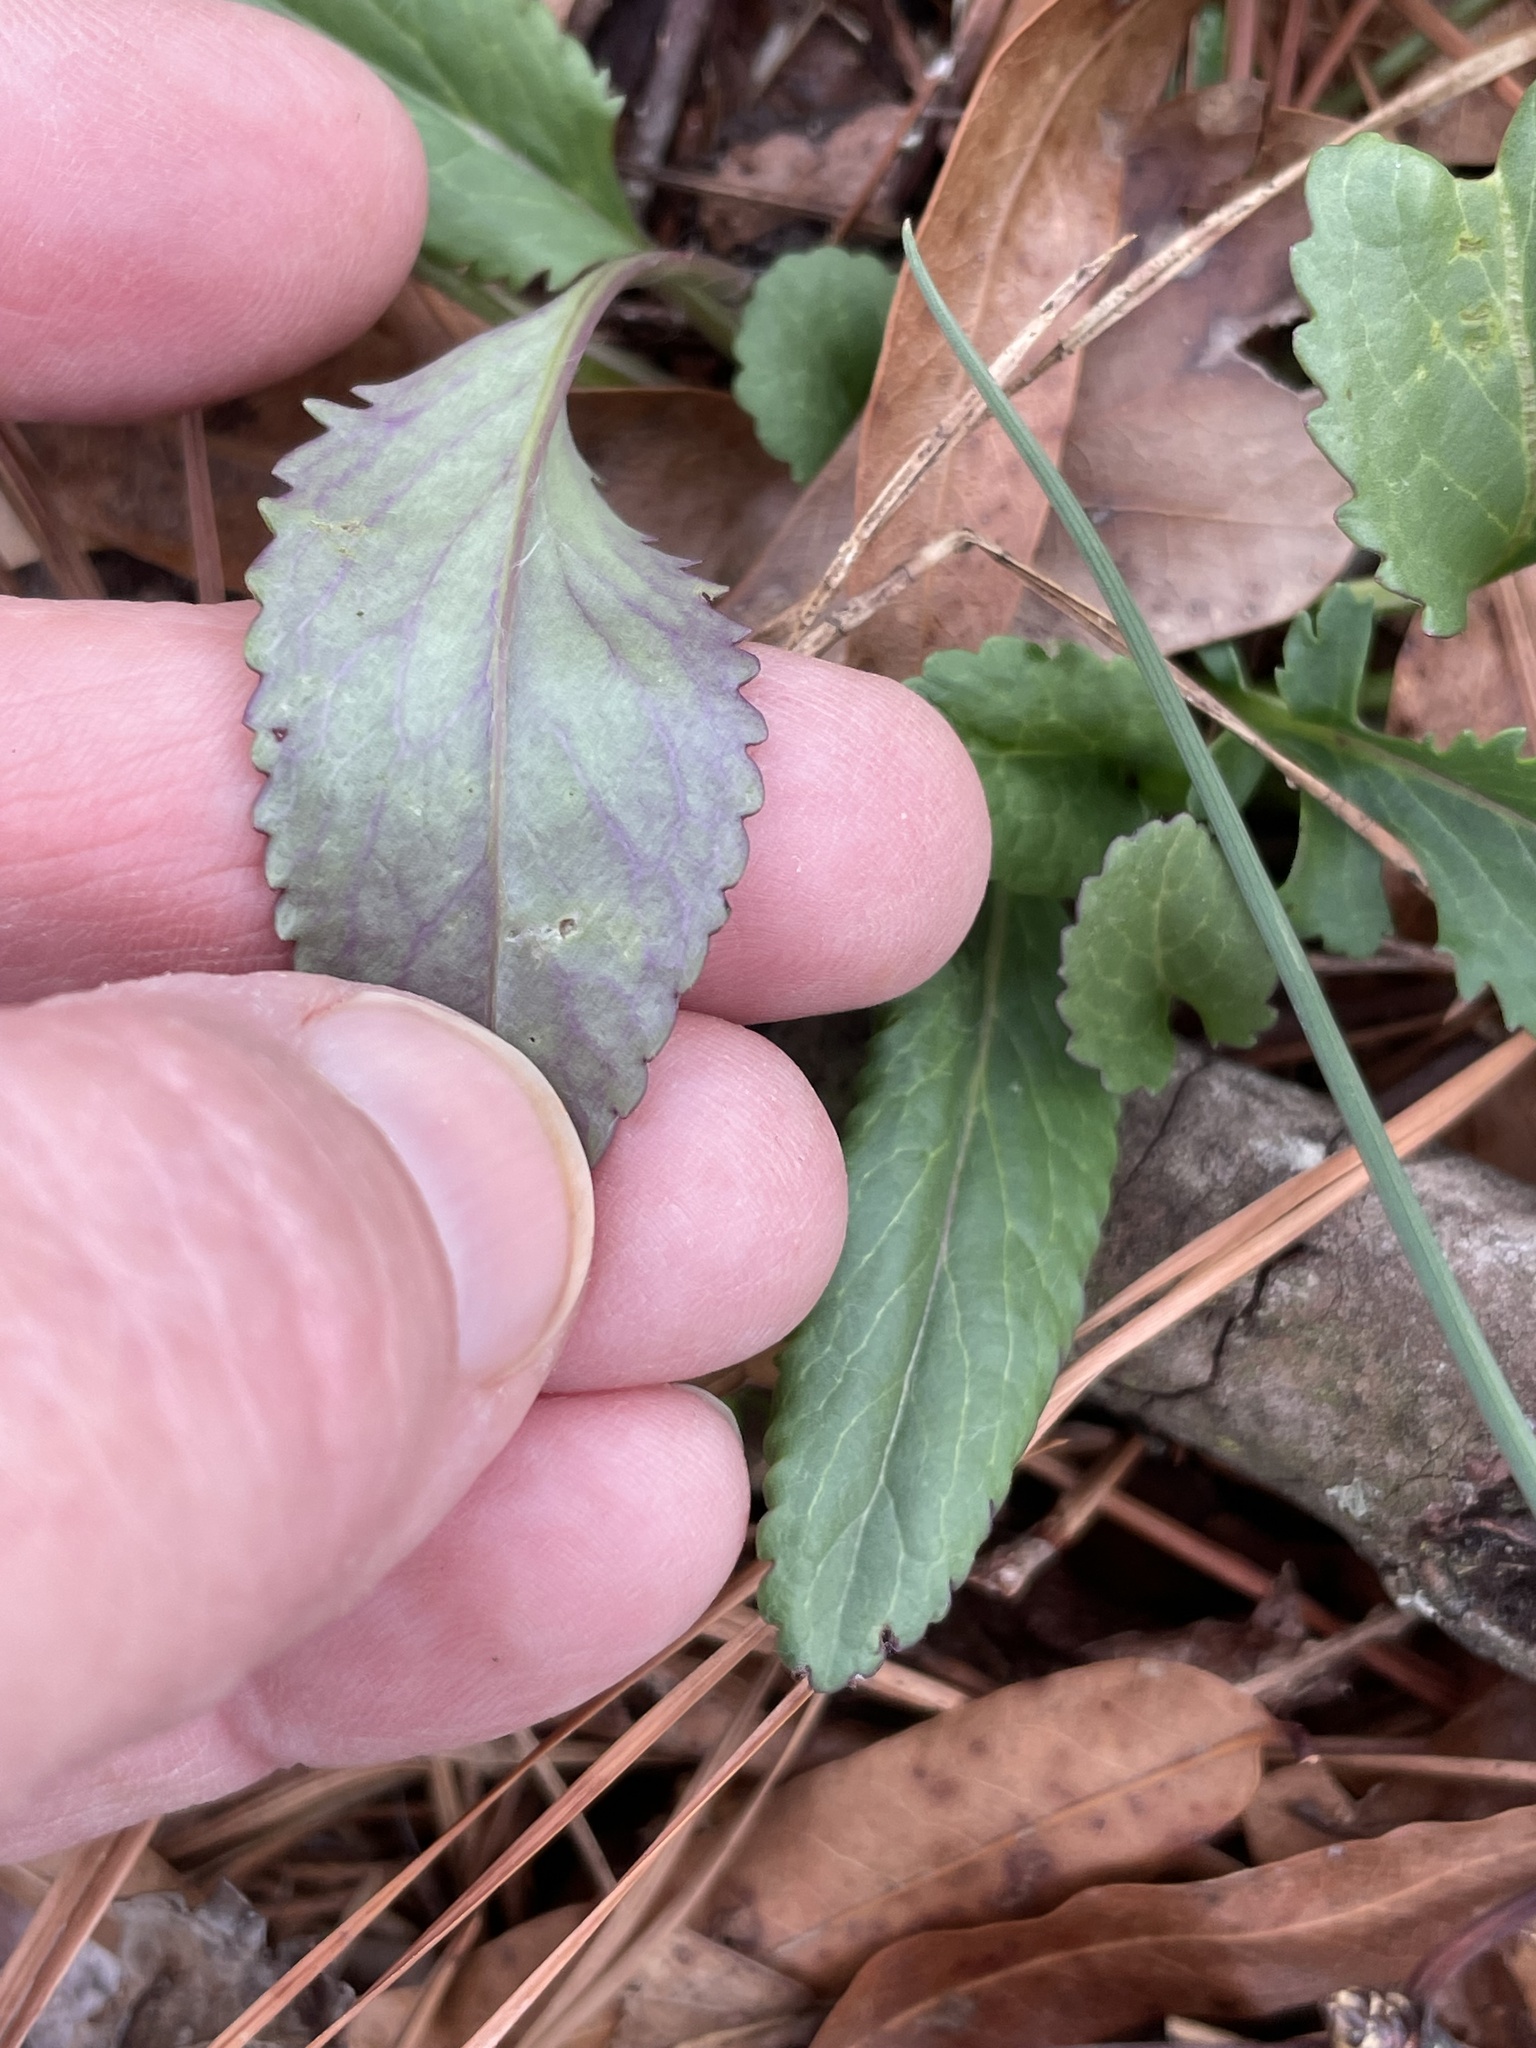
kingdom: Plantae
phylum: Tracheophyta
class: Magnoliopsida
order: Asterales
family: Asteraceae
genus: Packera
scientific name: Packera anonyma
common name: Small ragwort
